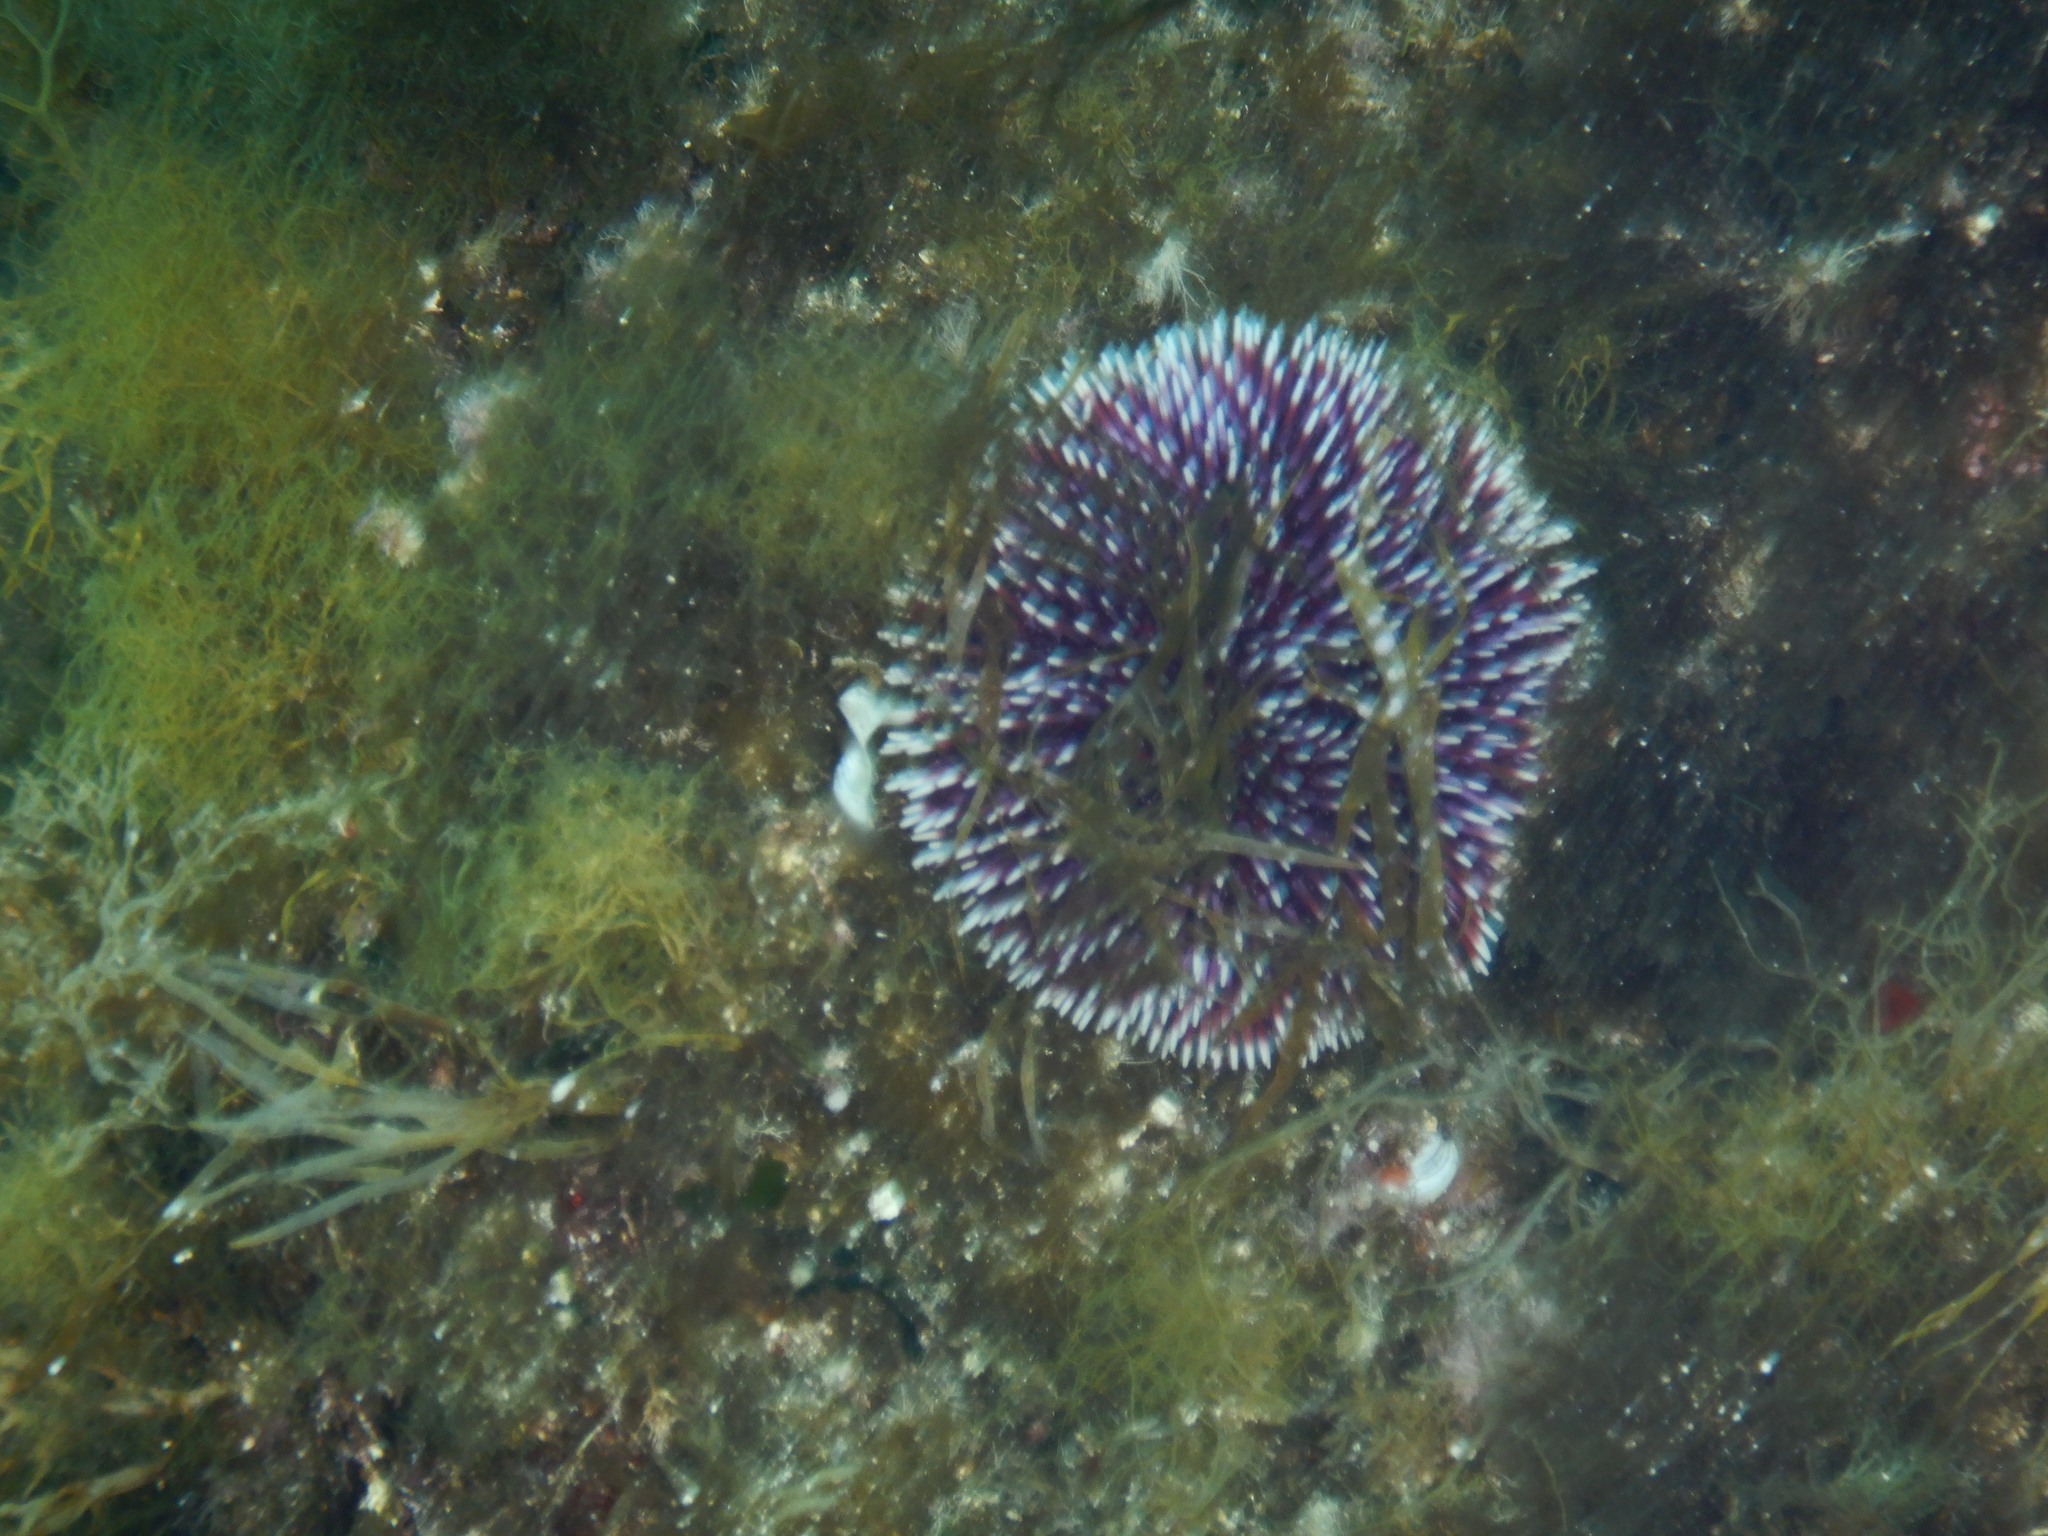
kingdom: Animalia
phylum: Echinodermata
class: Echinoidea
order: Camarodonta
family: Toxopneustidae
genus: Sphaerechinus
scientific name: Sphaerechinus granularis
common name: Violet sea urchin
